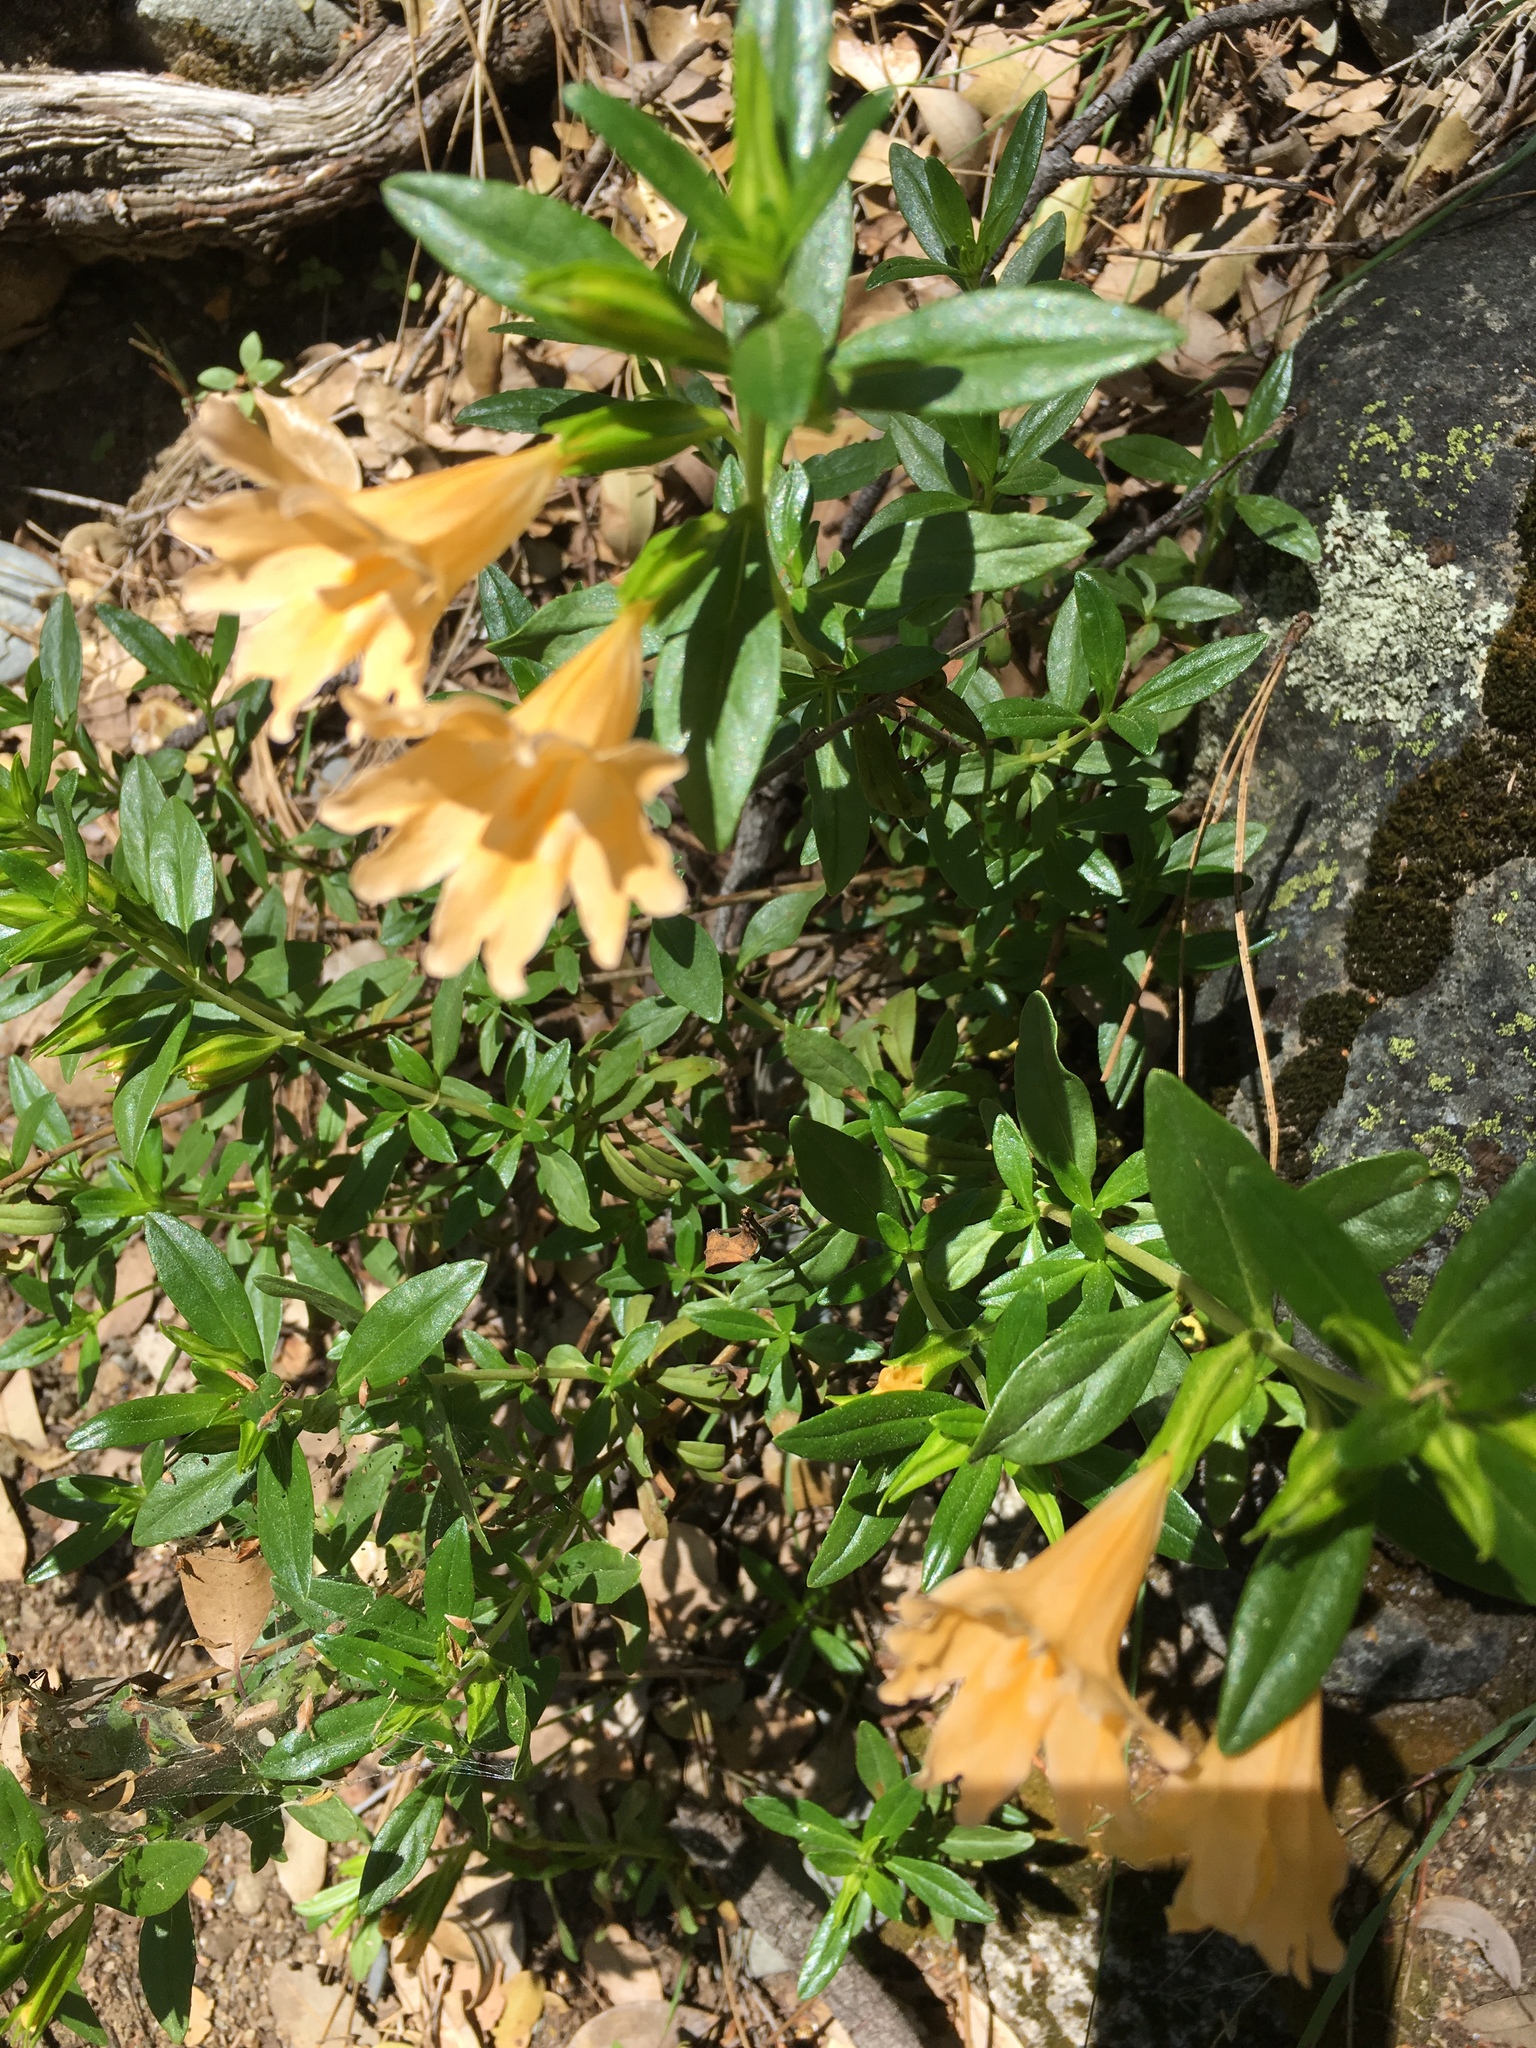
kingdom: Plantae
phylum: Tracheophyta
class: Magnoliopsida
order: Lamiales
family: Phrymaceae
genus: Diplacus
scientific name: Diplacus grandiflorus
